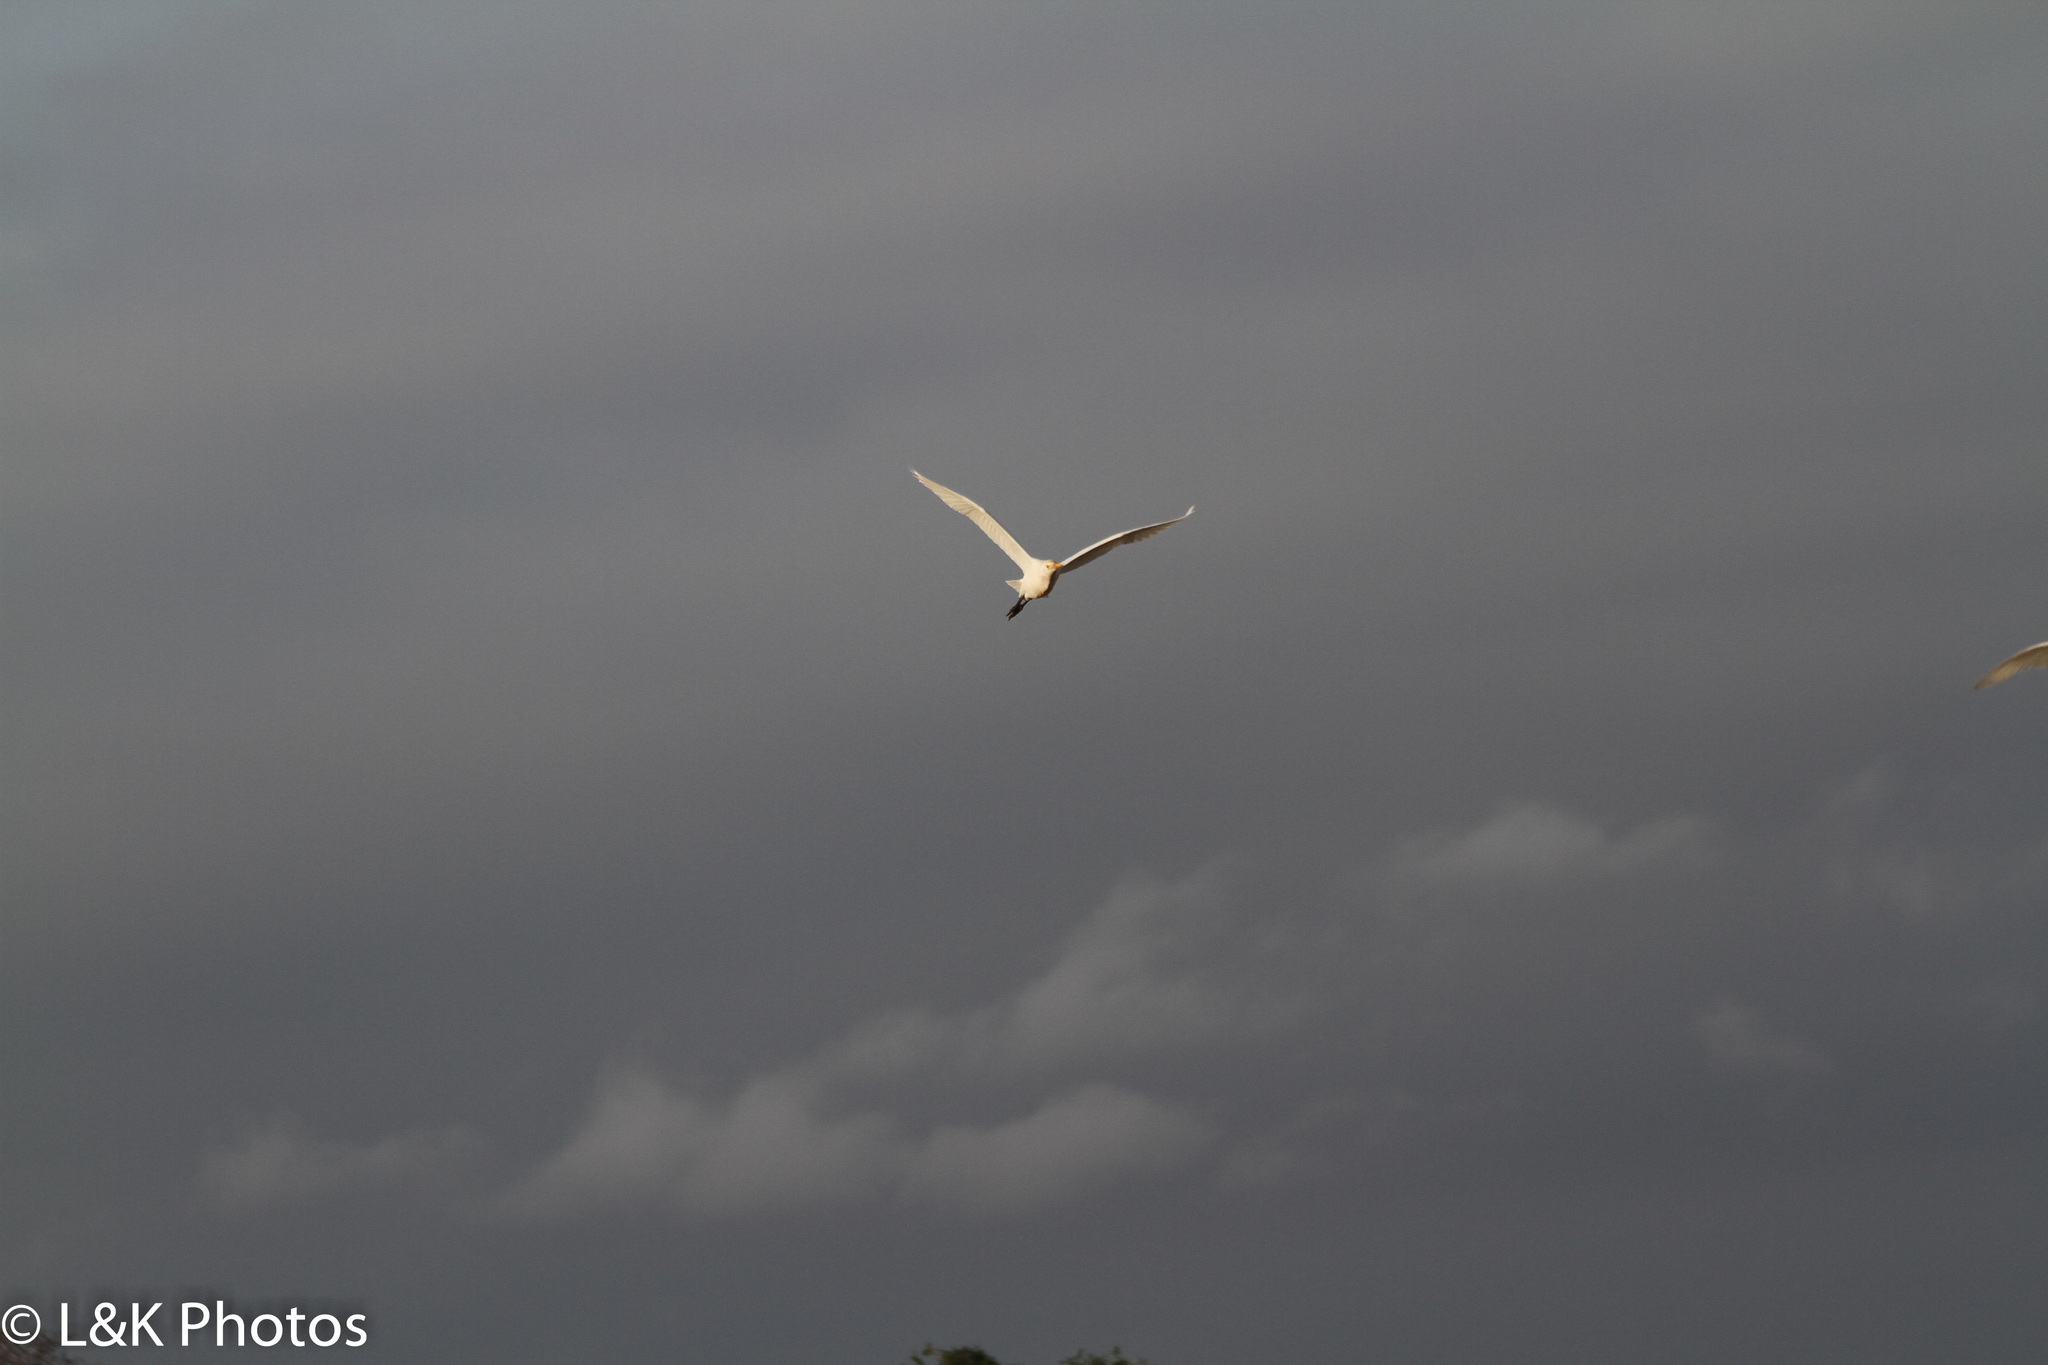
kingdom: Animalia
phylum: Chordata
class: Aves
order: Pelecaniformes
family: Ardeidae
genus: Bubulcus
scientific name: Bubulcus ibis
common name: Cattle egret
